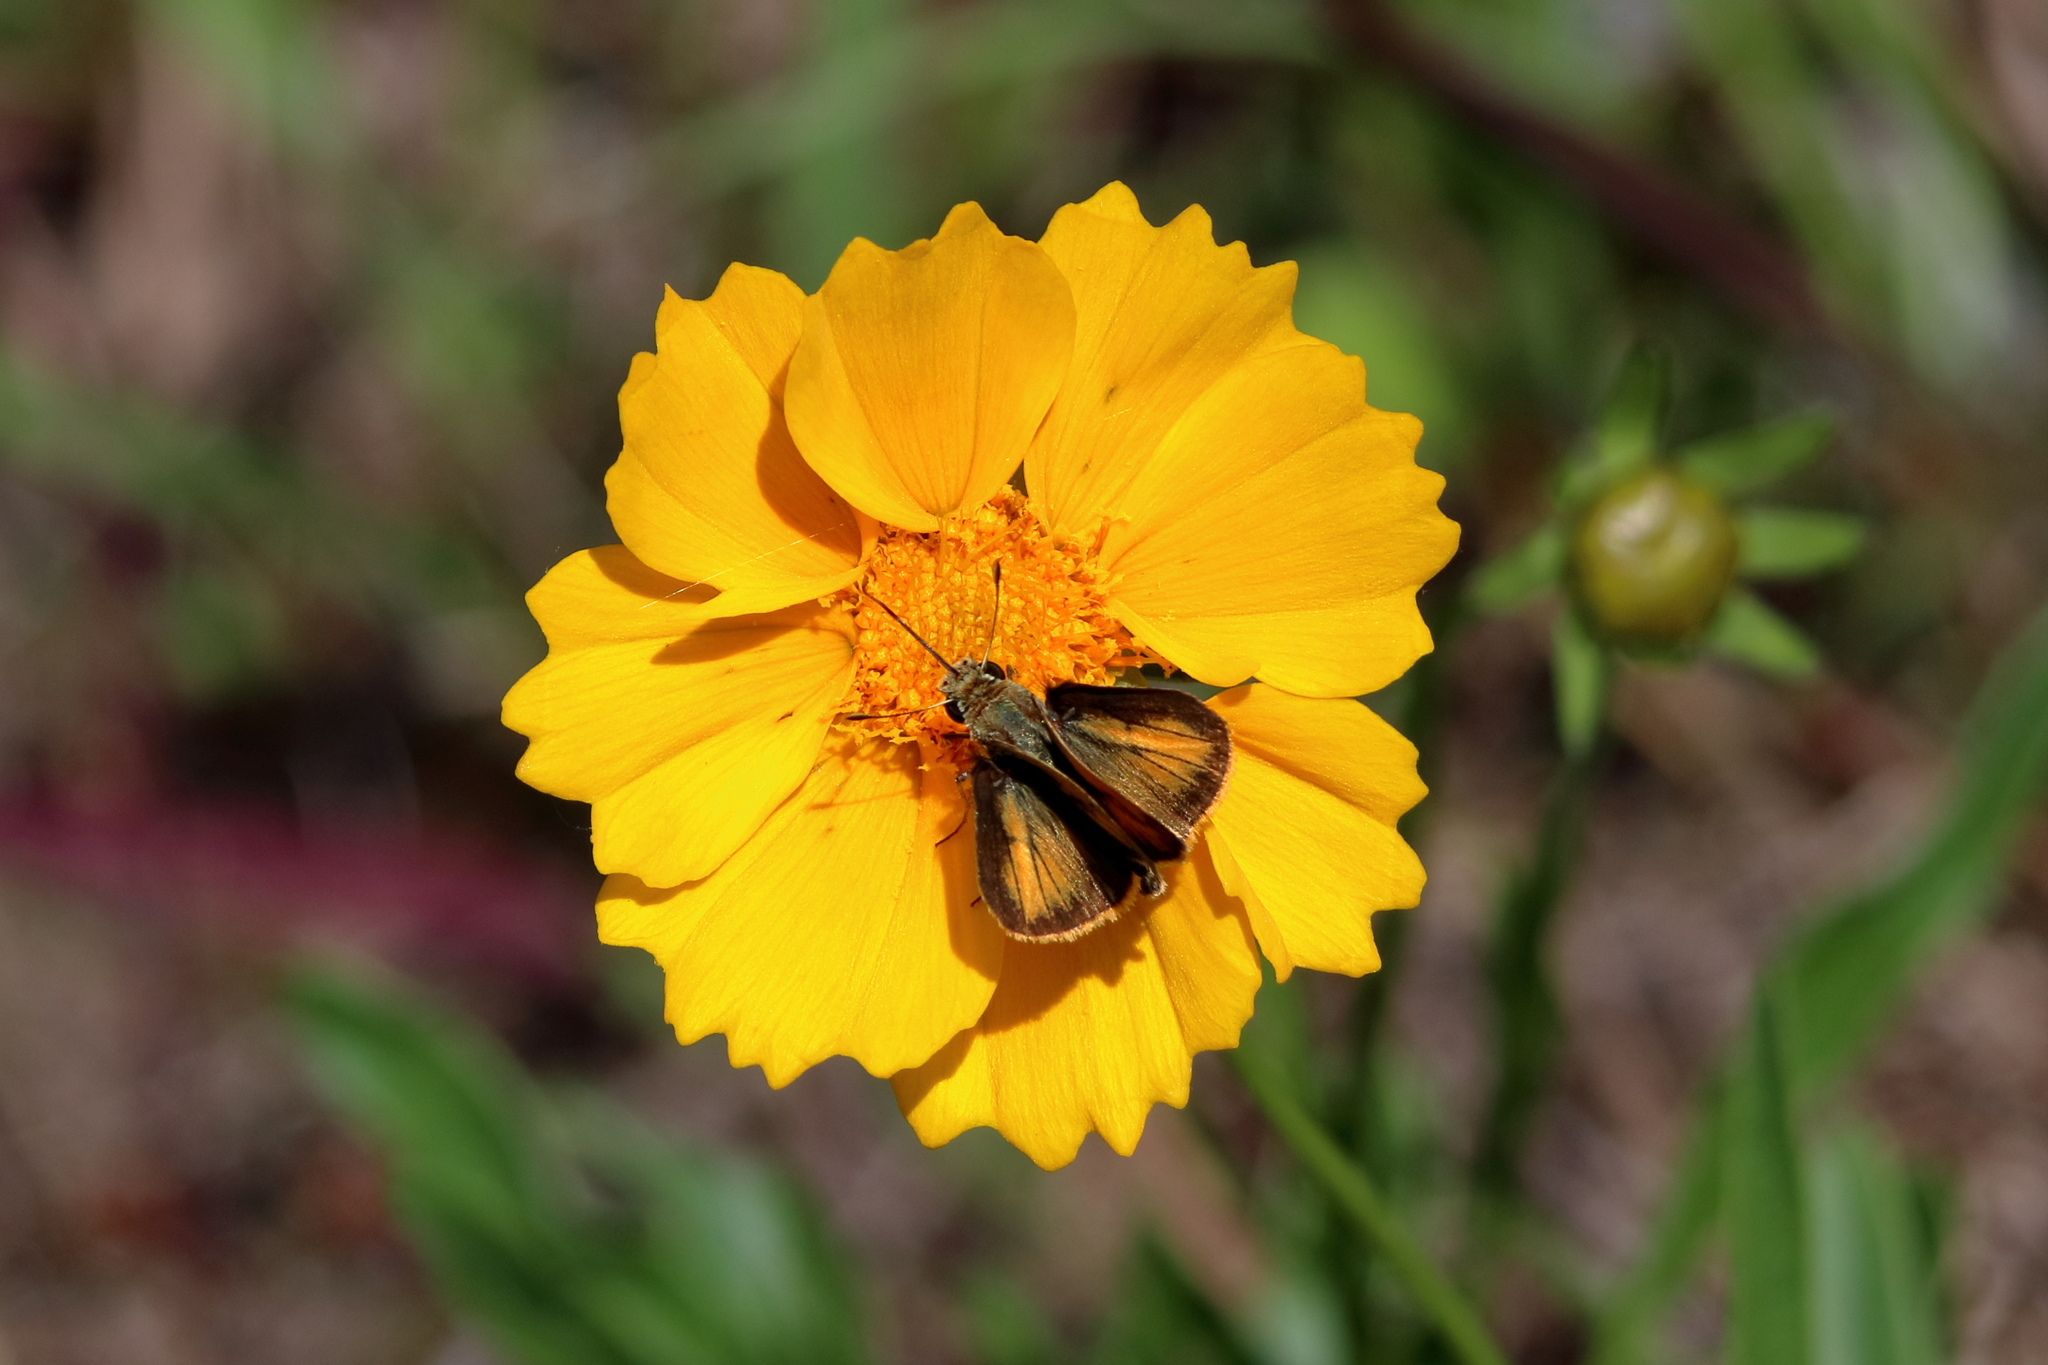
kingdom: Animalia
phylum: Arthropoda
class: Insecta
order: Lepidoptera
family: Hesperiidae
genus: Polites
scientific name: Polites vibex
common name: Whirlabout
